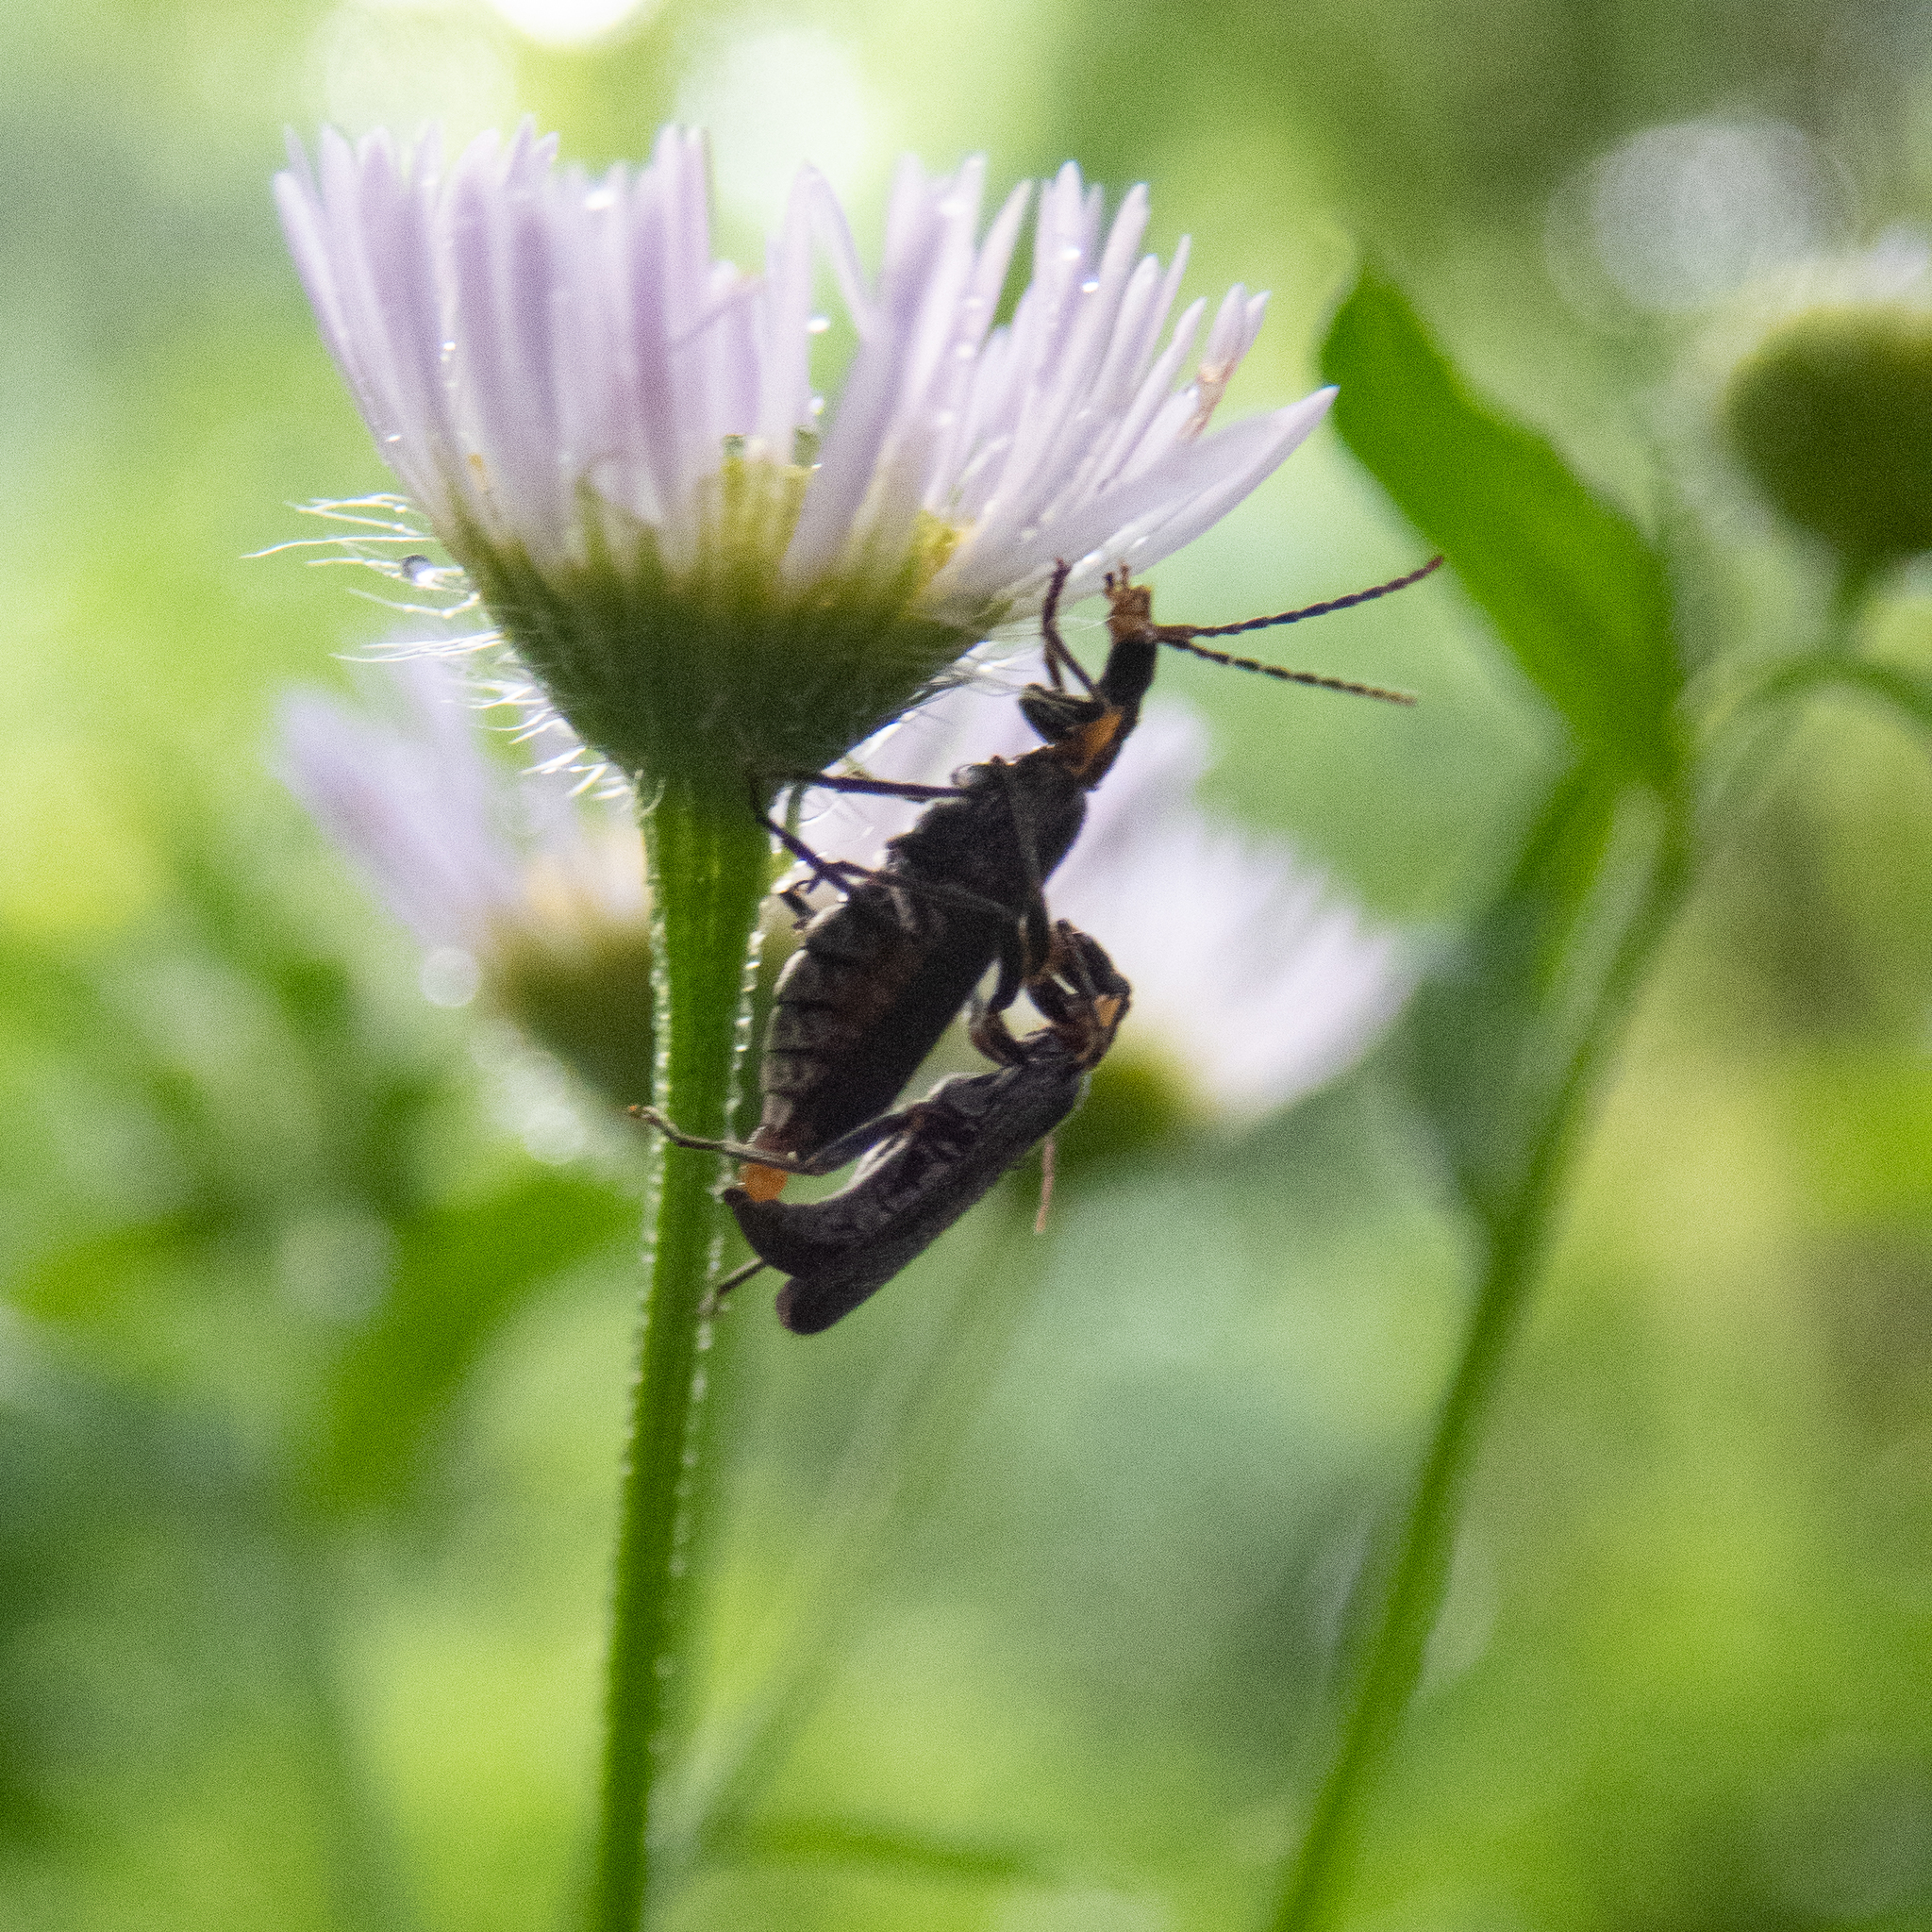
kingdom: Animalia
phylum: Arthropoda
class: Insecta
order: Coleoptera
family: Cantharidae
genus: Podabrus
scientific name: Podabrus rugosulus
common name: Wrinkled soldier beetle
